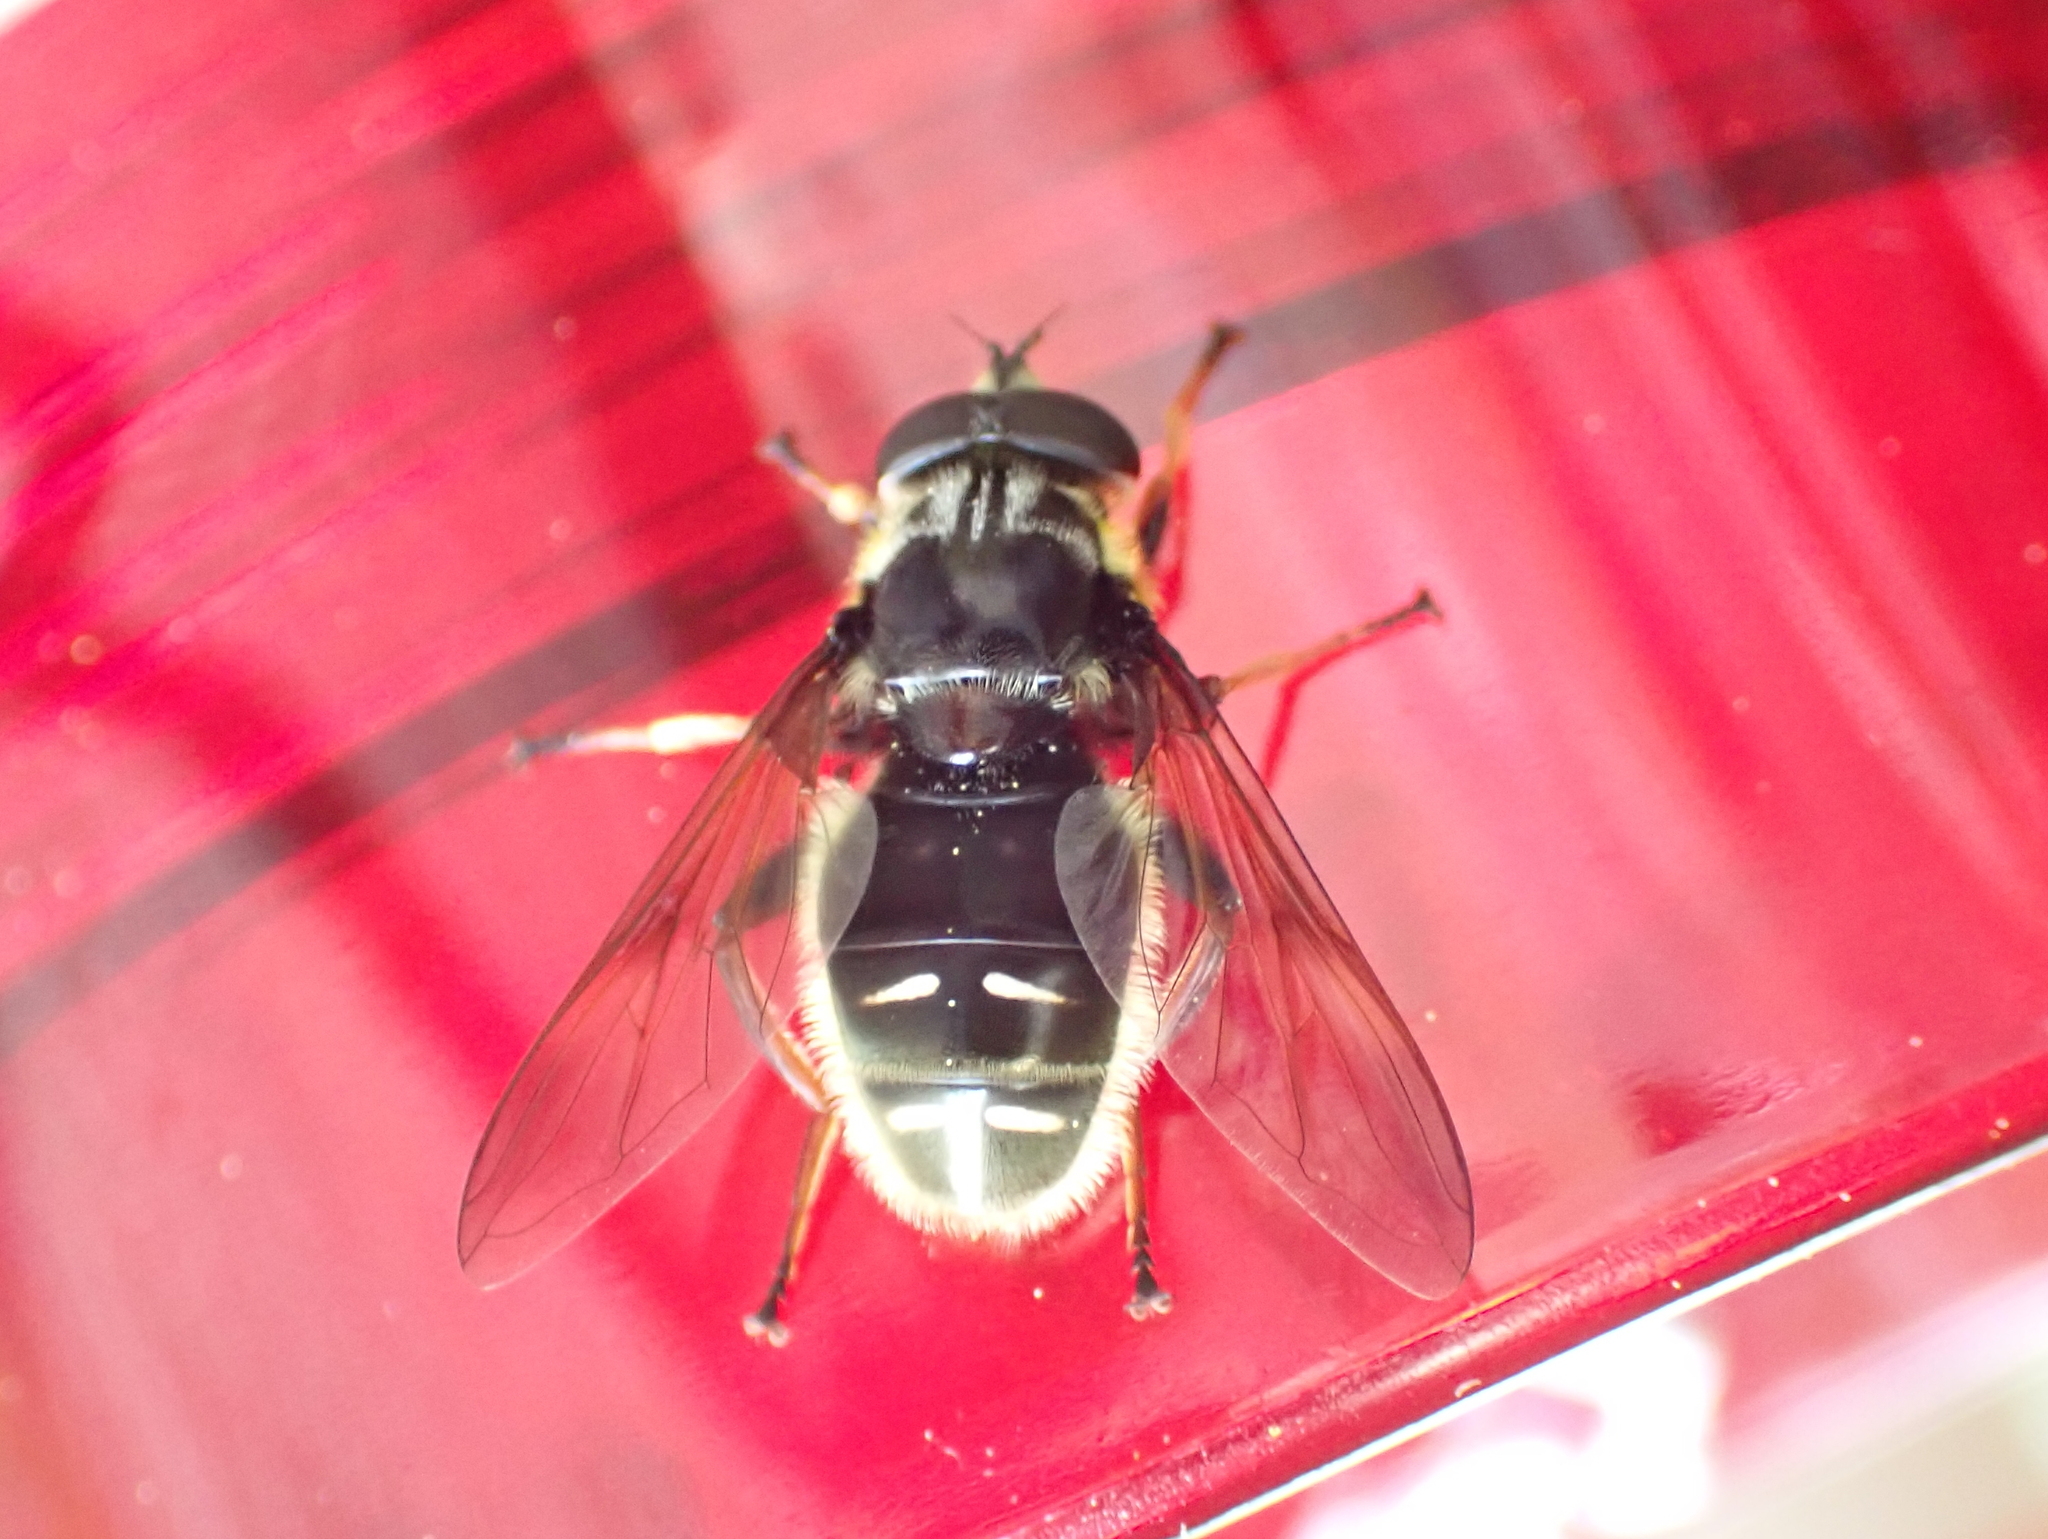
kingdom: Animalia
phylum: Arthropoda
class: Insecta
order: Diptera
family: Syrphidae
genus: Sericomyia
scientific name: Sericomyia militaris
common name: Narrow-banded pond fly
